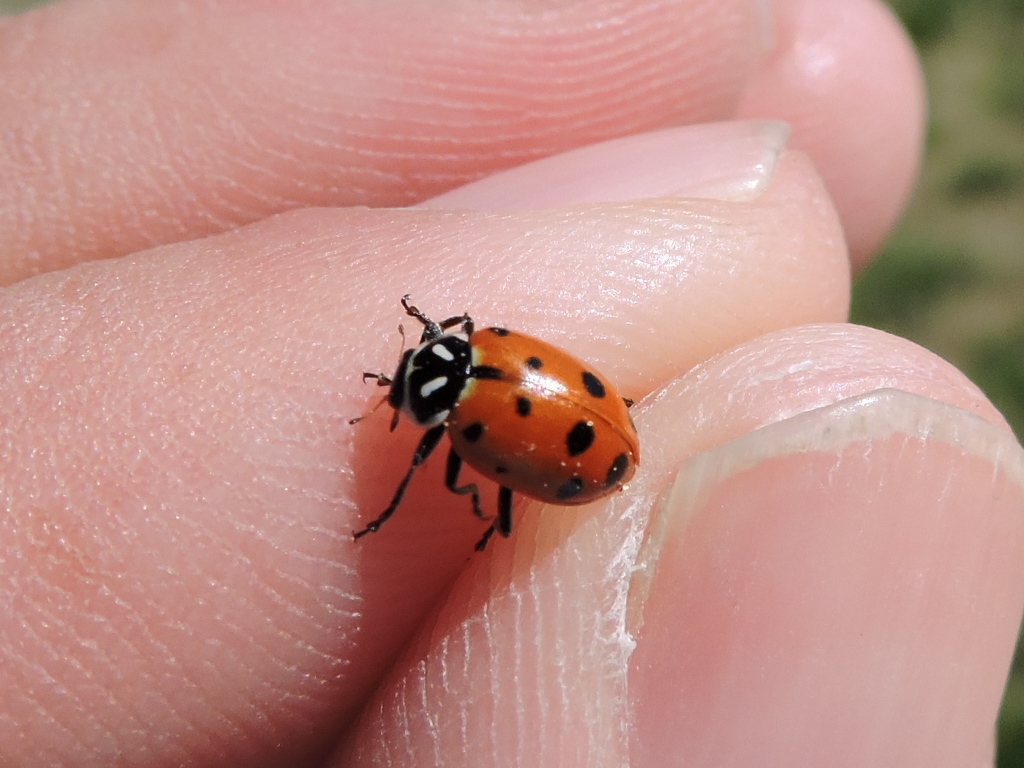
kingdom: Animalia
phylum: Arthropoda
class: Insecta
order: Coleoptera
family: Coccinellidae
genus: Hippodamia
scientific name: Hippodamia convergens
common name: Convergent lady beetle
